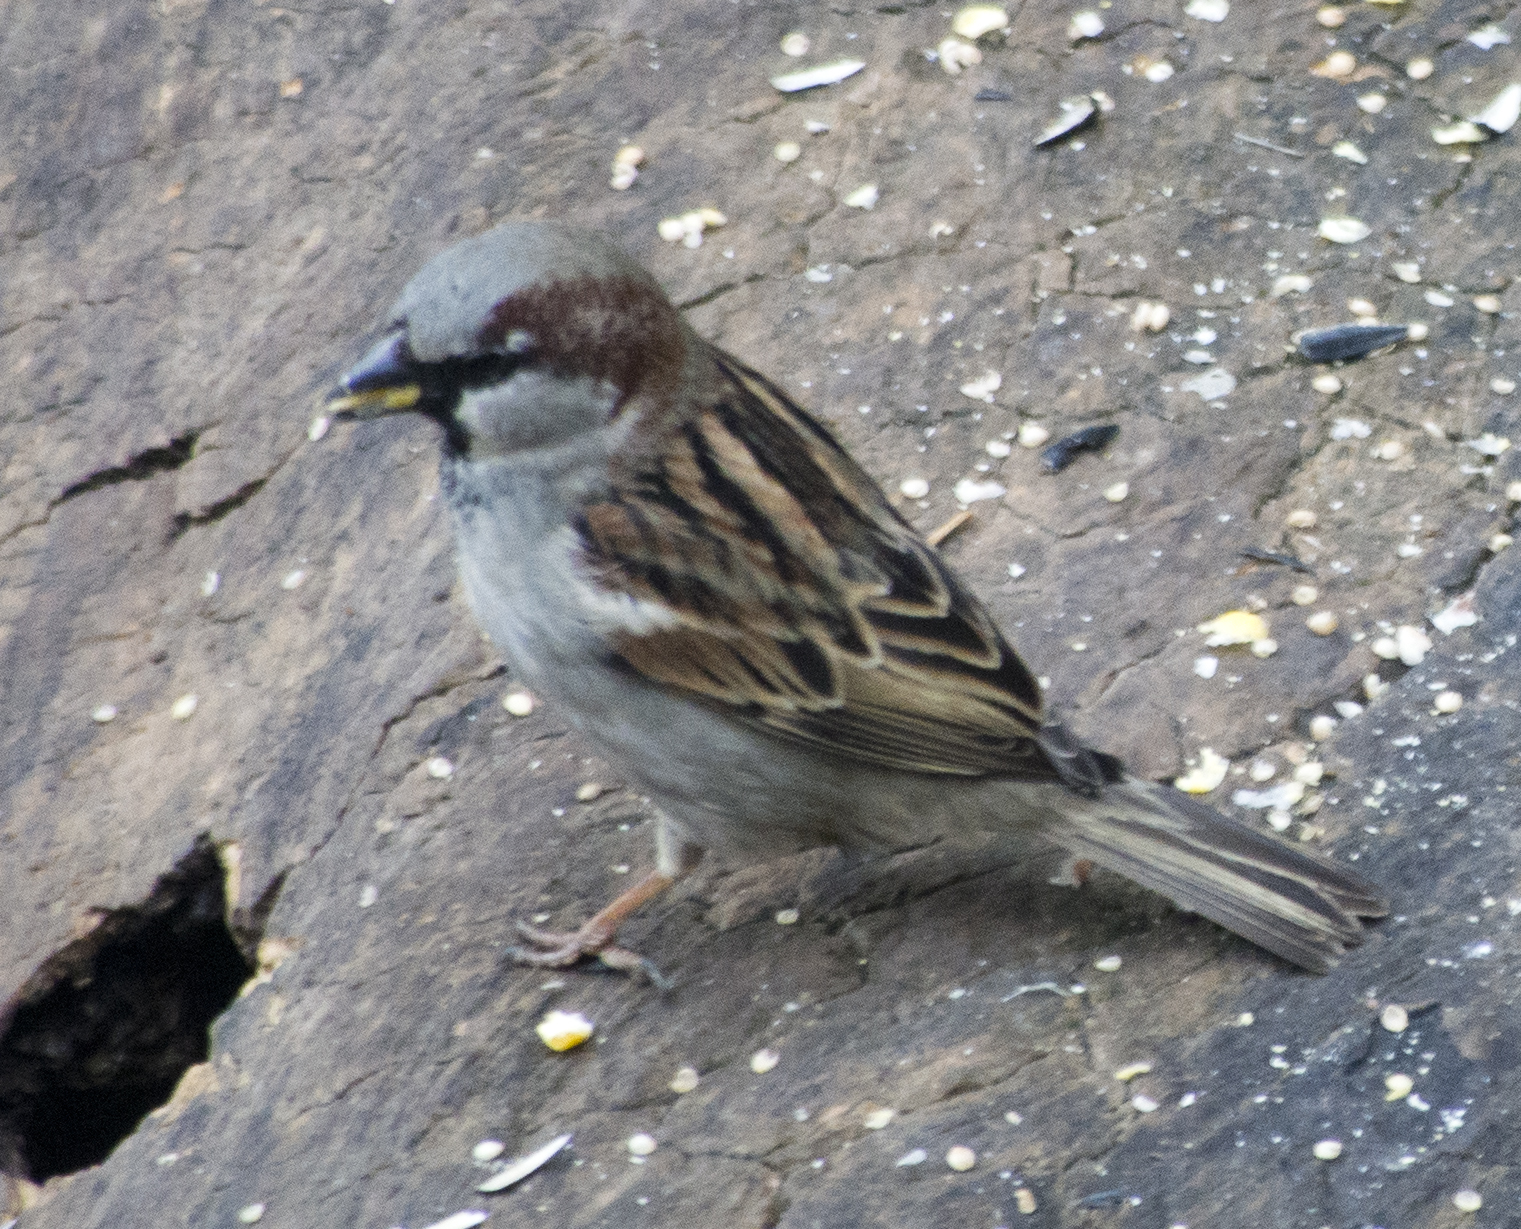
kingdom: Animalia
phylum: Chordata
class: Aves
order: Passeriformes
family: Passeridae
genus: Passer
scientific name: Passer domesticus
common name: House sparrow
